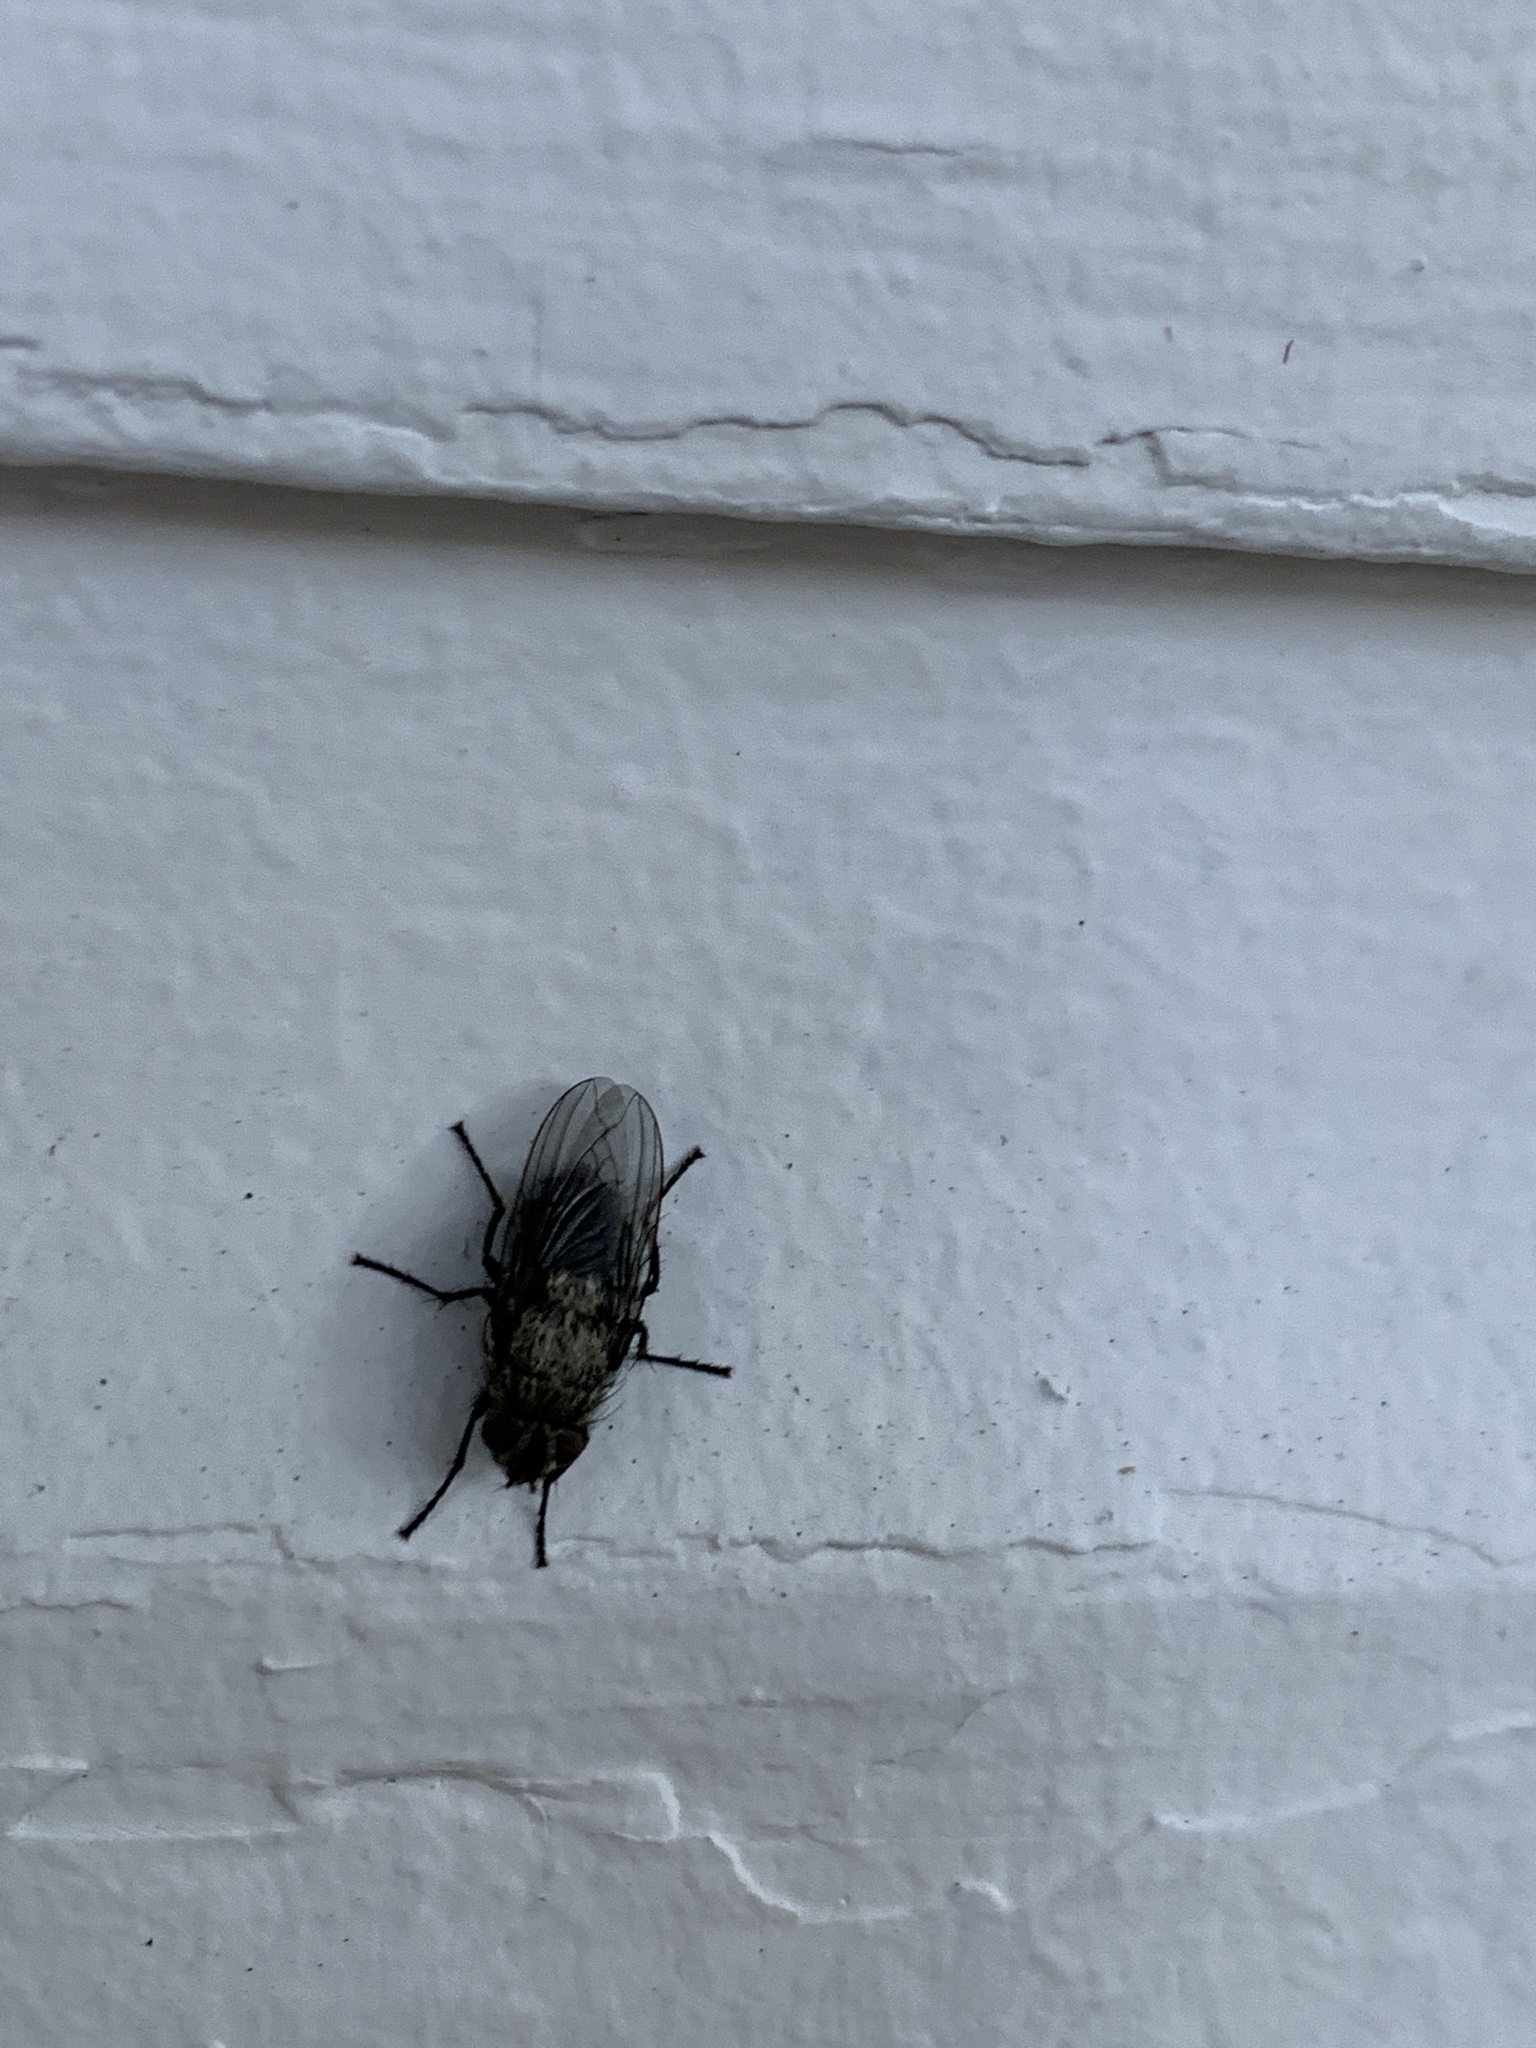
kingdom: Animalia
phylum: Arthropoda
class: Insecta
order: Diptera
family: Polleniidae
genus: Pollenia
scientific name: Pollenia
